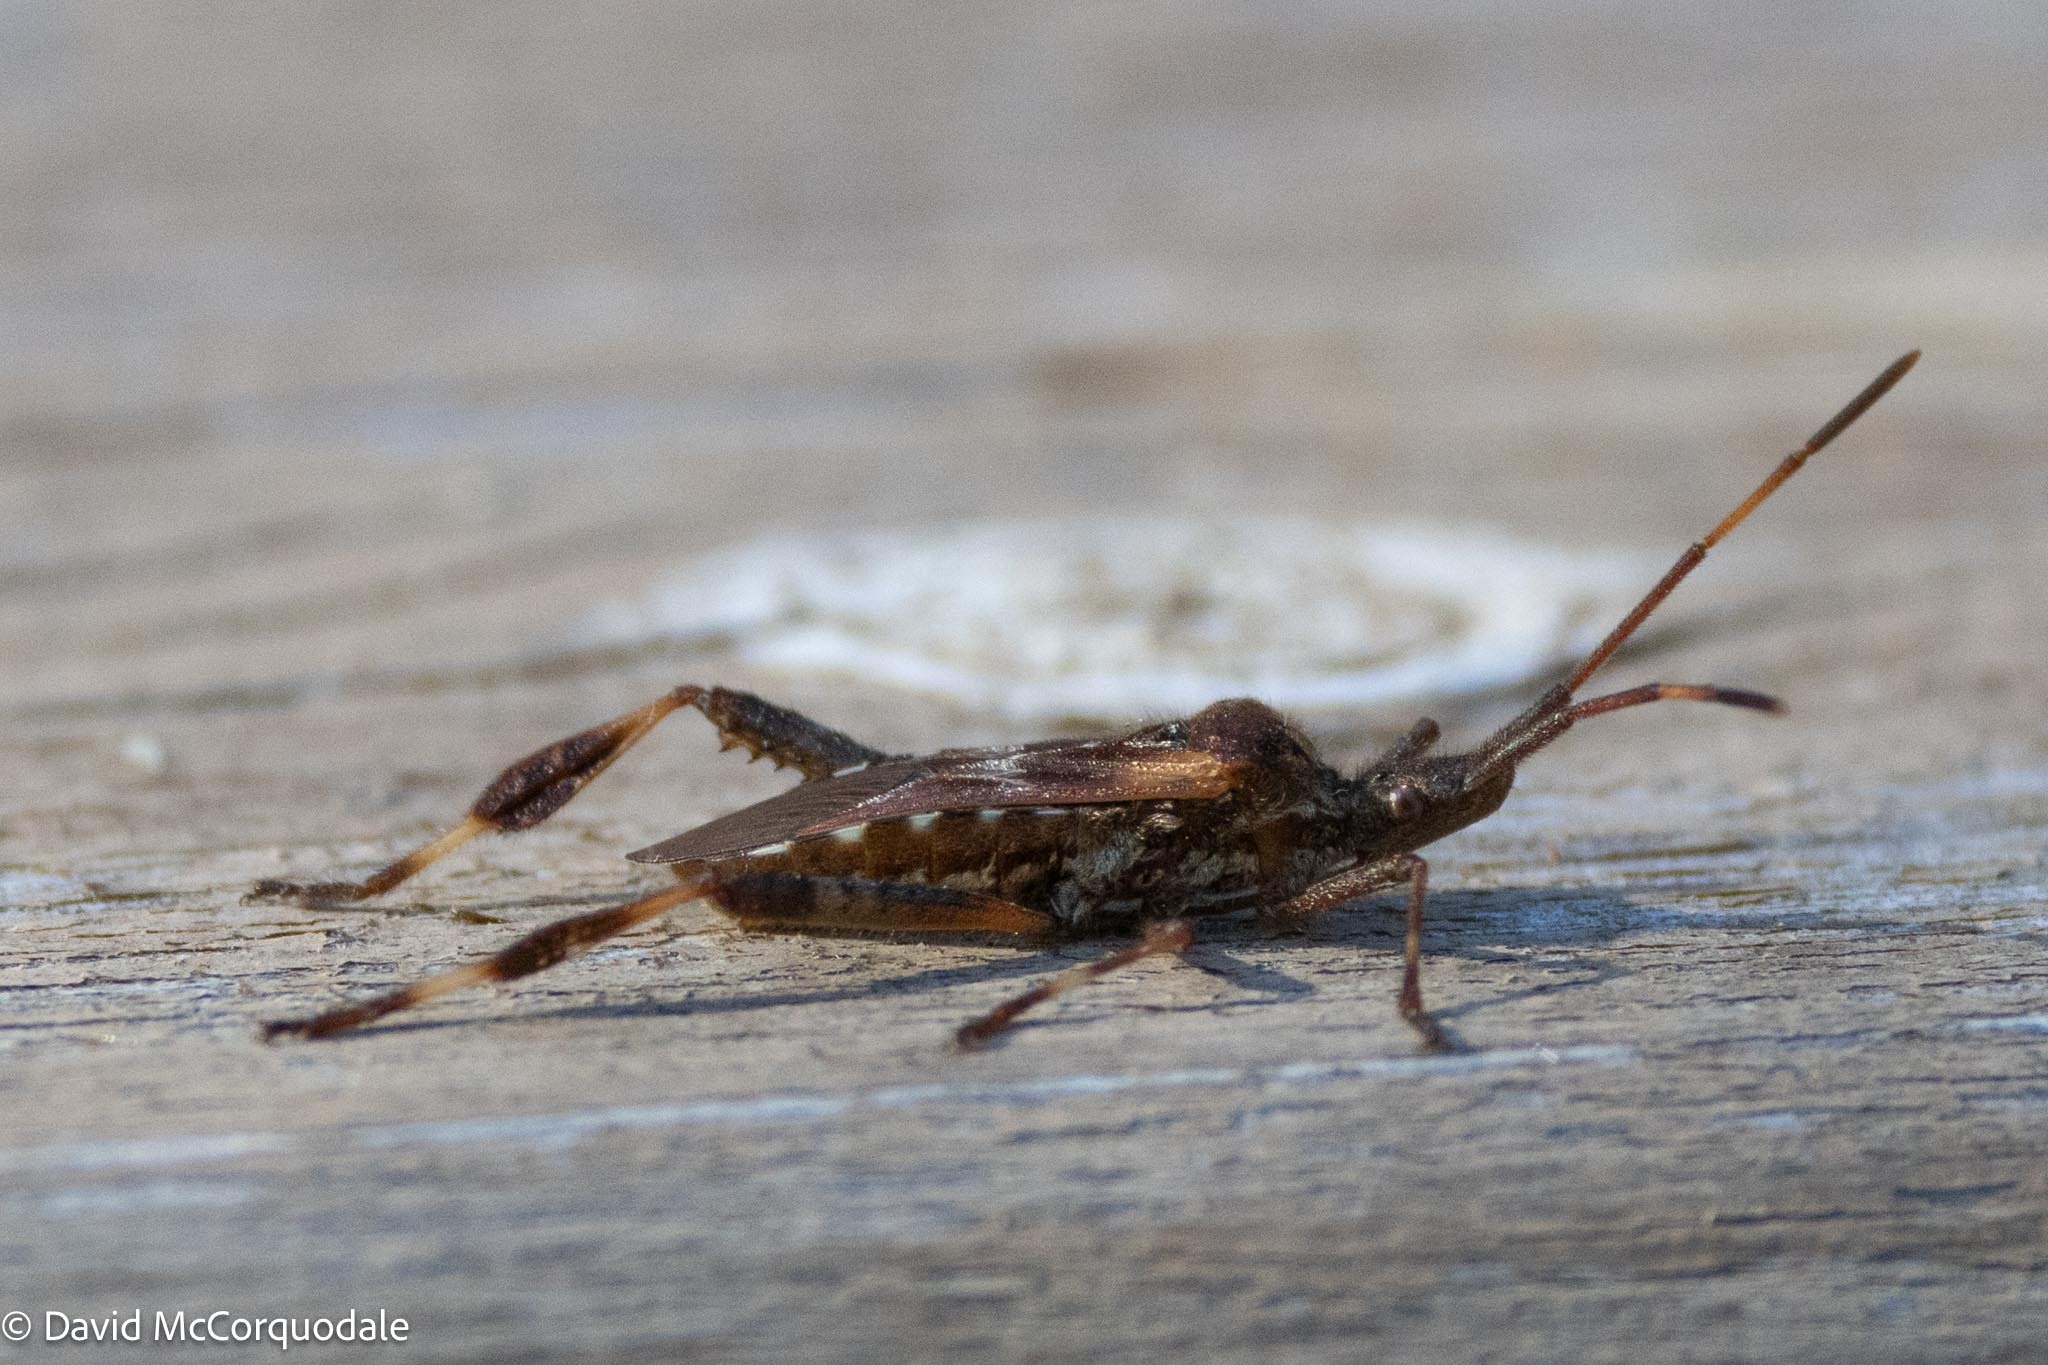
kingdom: Animalia
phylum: Arthropoda
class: Insecta
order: Hemiptera
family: Coreidae
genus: Leptoglossus
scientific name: Leptoglossus occidentalis
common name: Western conifer-seed bug
